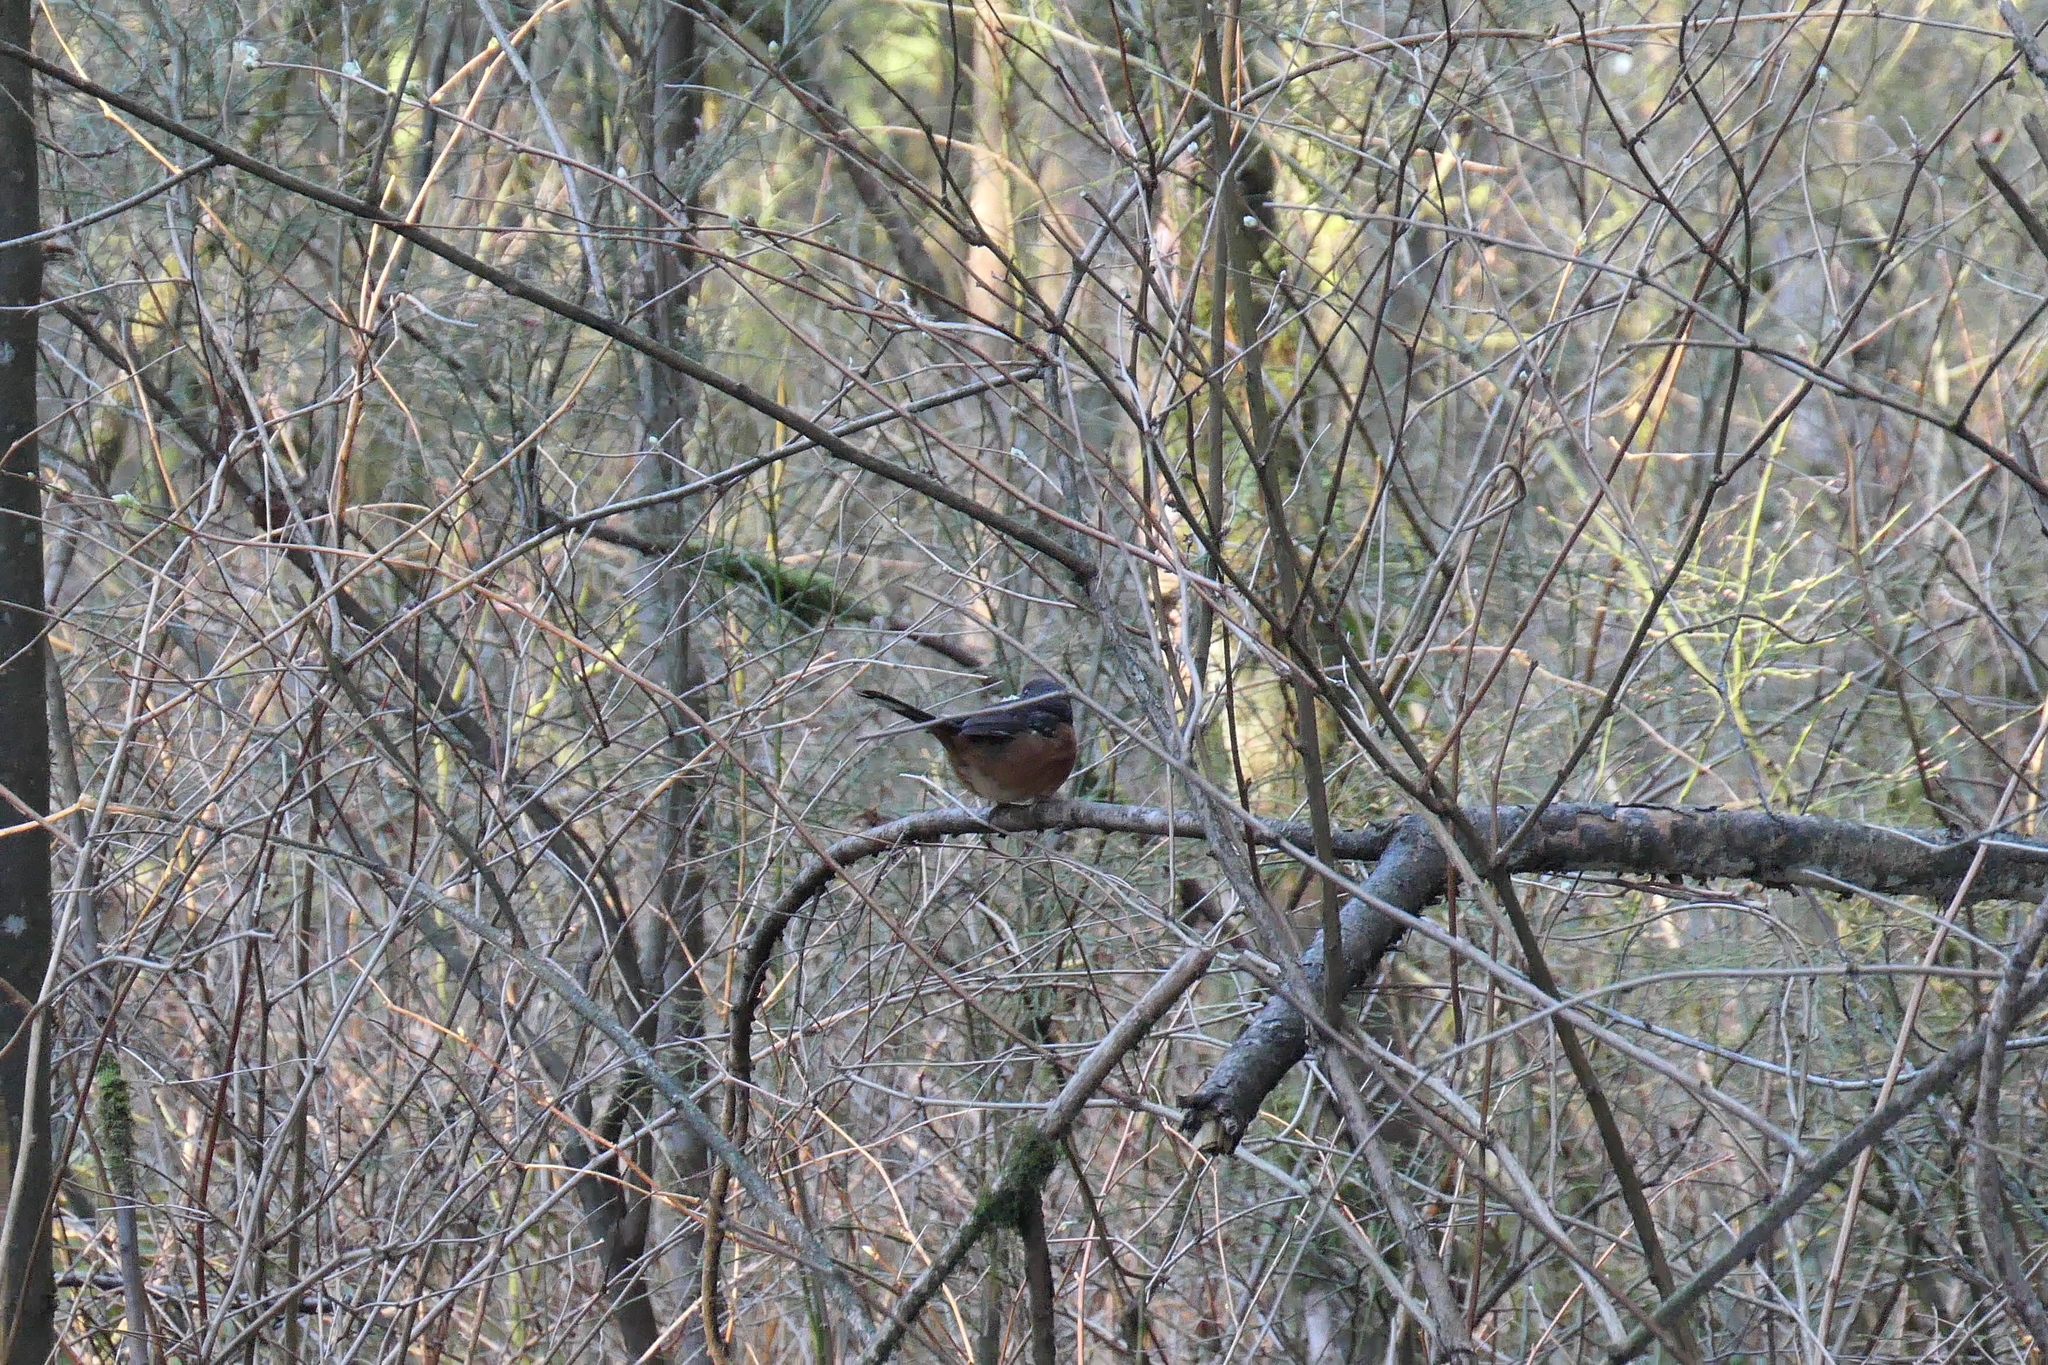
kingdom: Animalia
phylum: Chordata
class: Aves
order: Passeriformes
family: Passerellidae
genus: Pipilo
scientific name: Pipilo maculatus
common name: Spotted towhee
